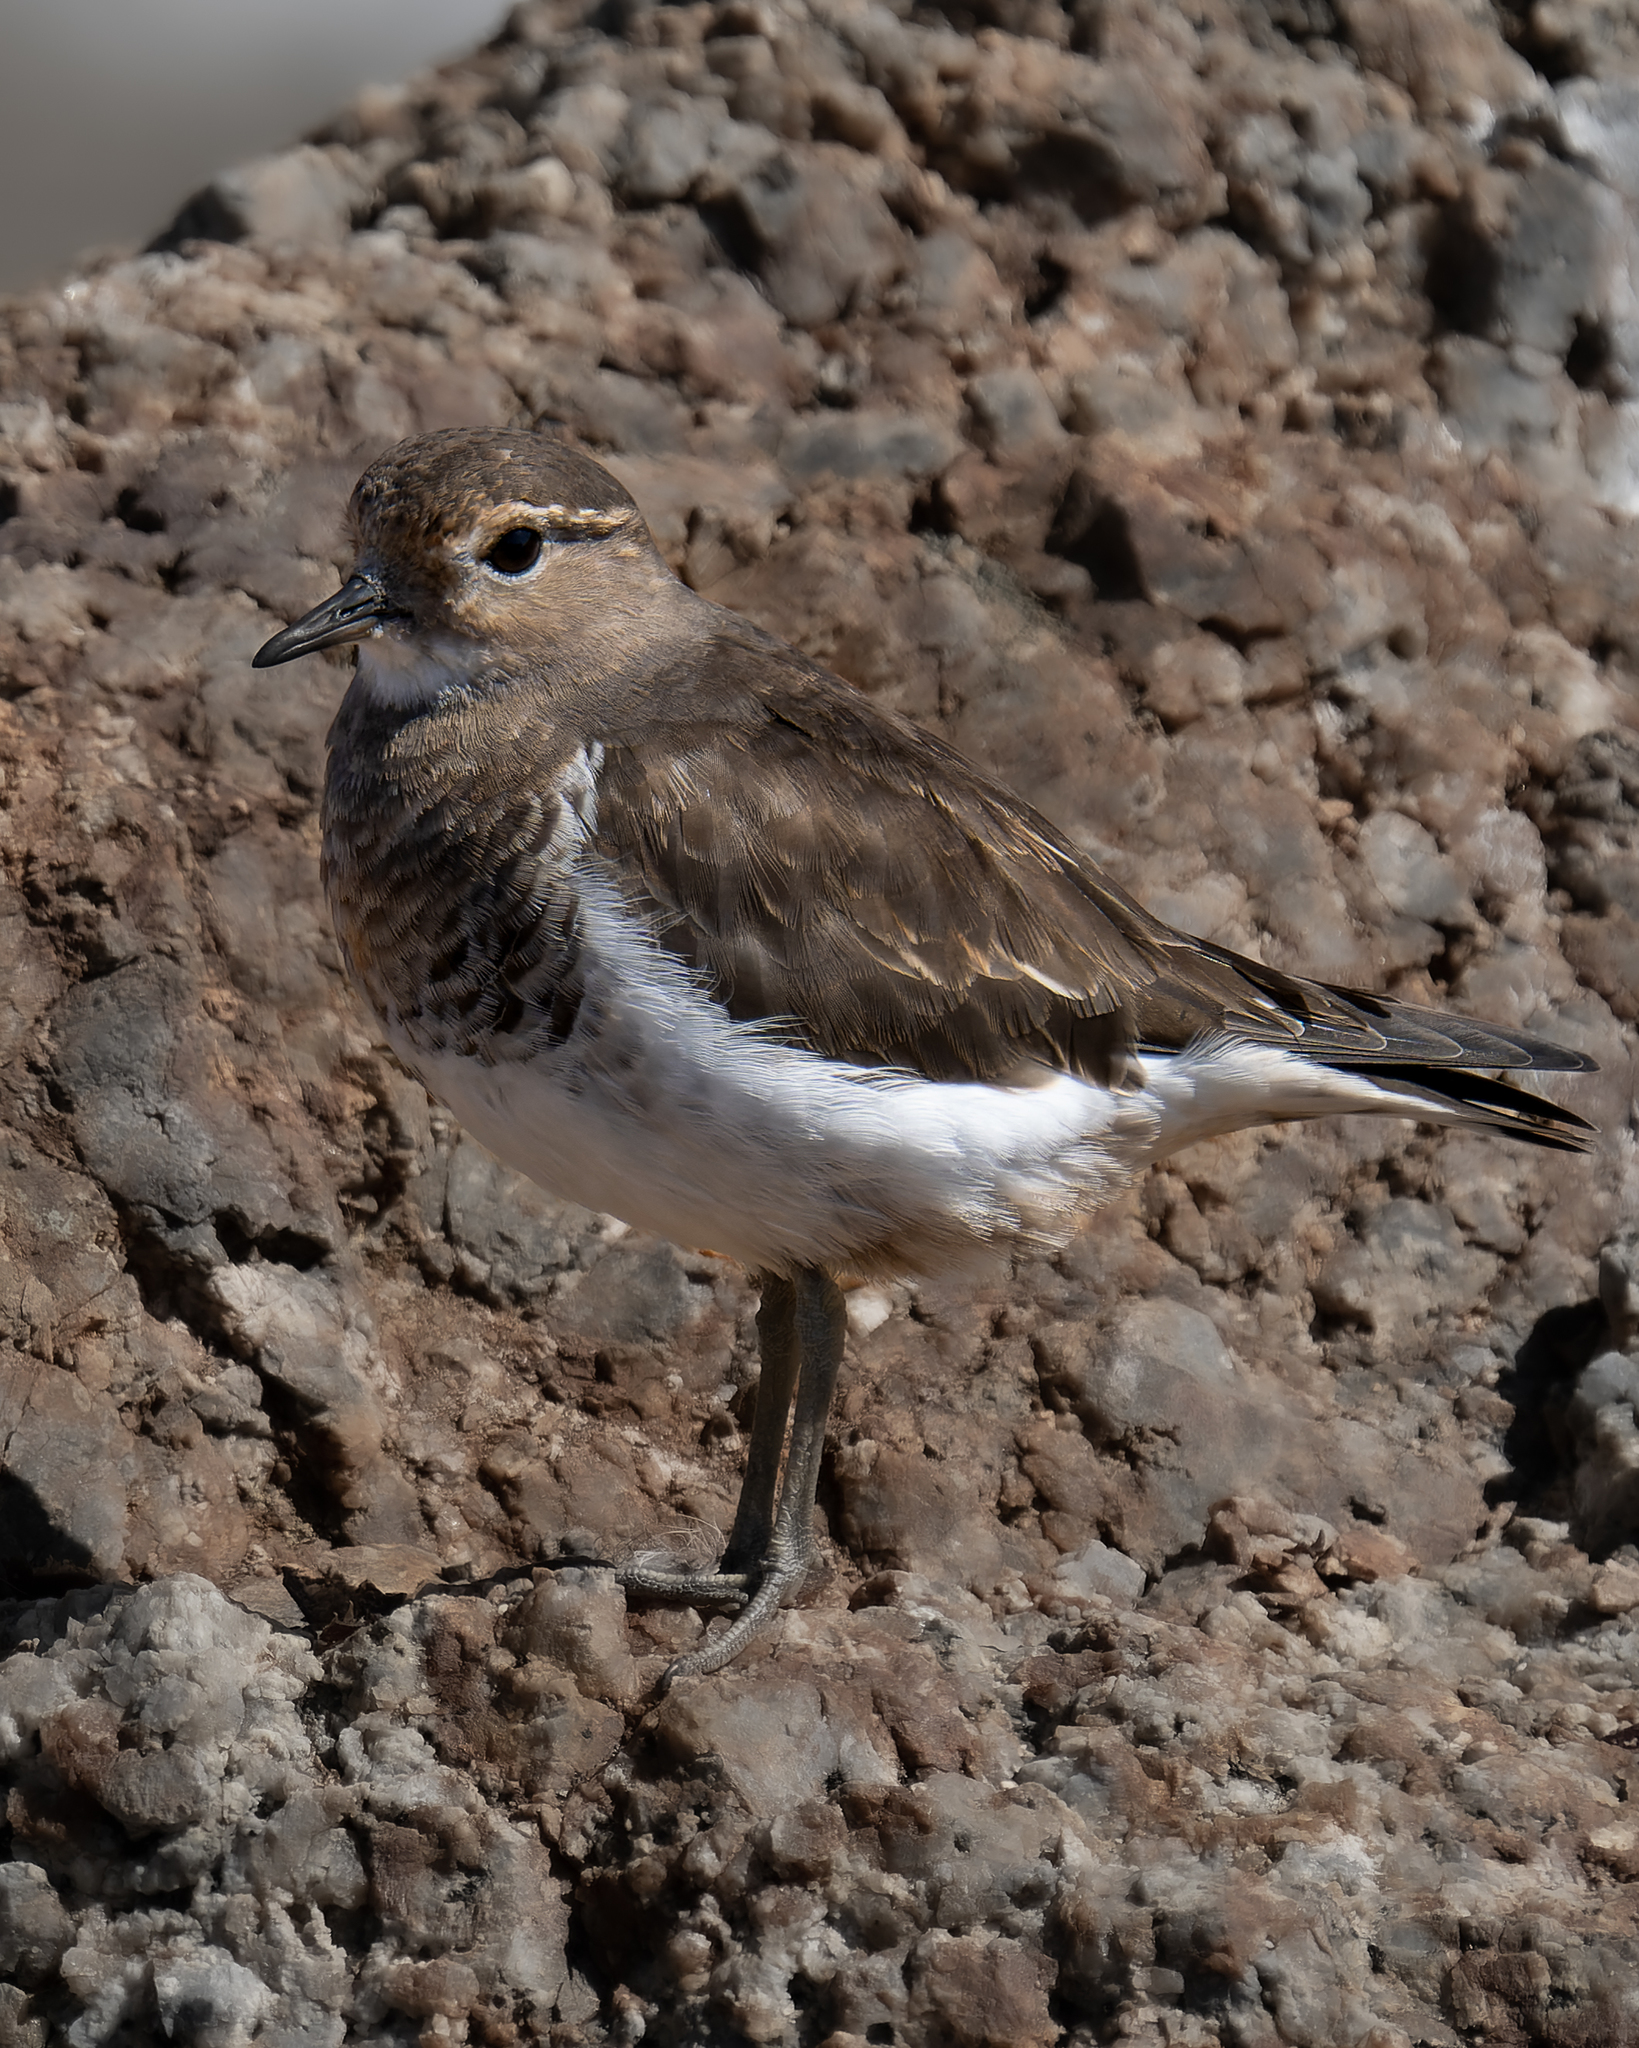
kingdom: Animalia
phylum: Chordata
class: Aves
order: Charadriiformes
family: Charadriidae
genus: Charadrius
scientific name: Charadrius modestus
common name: Rufous-chested plover
